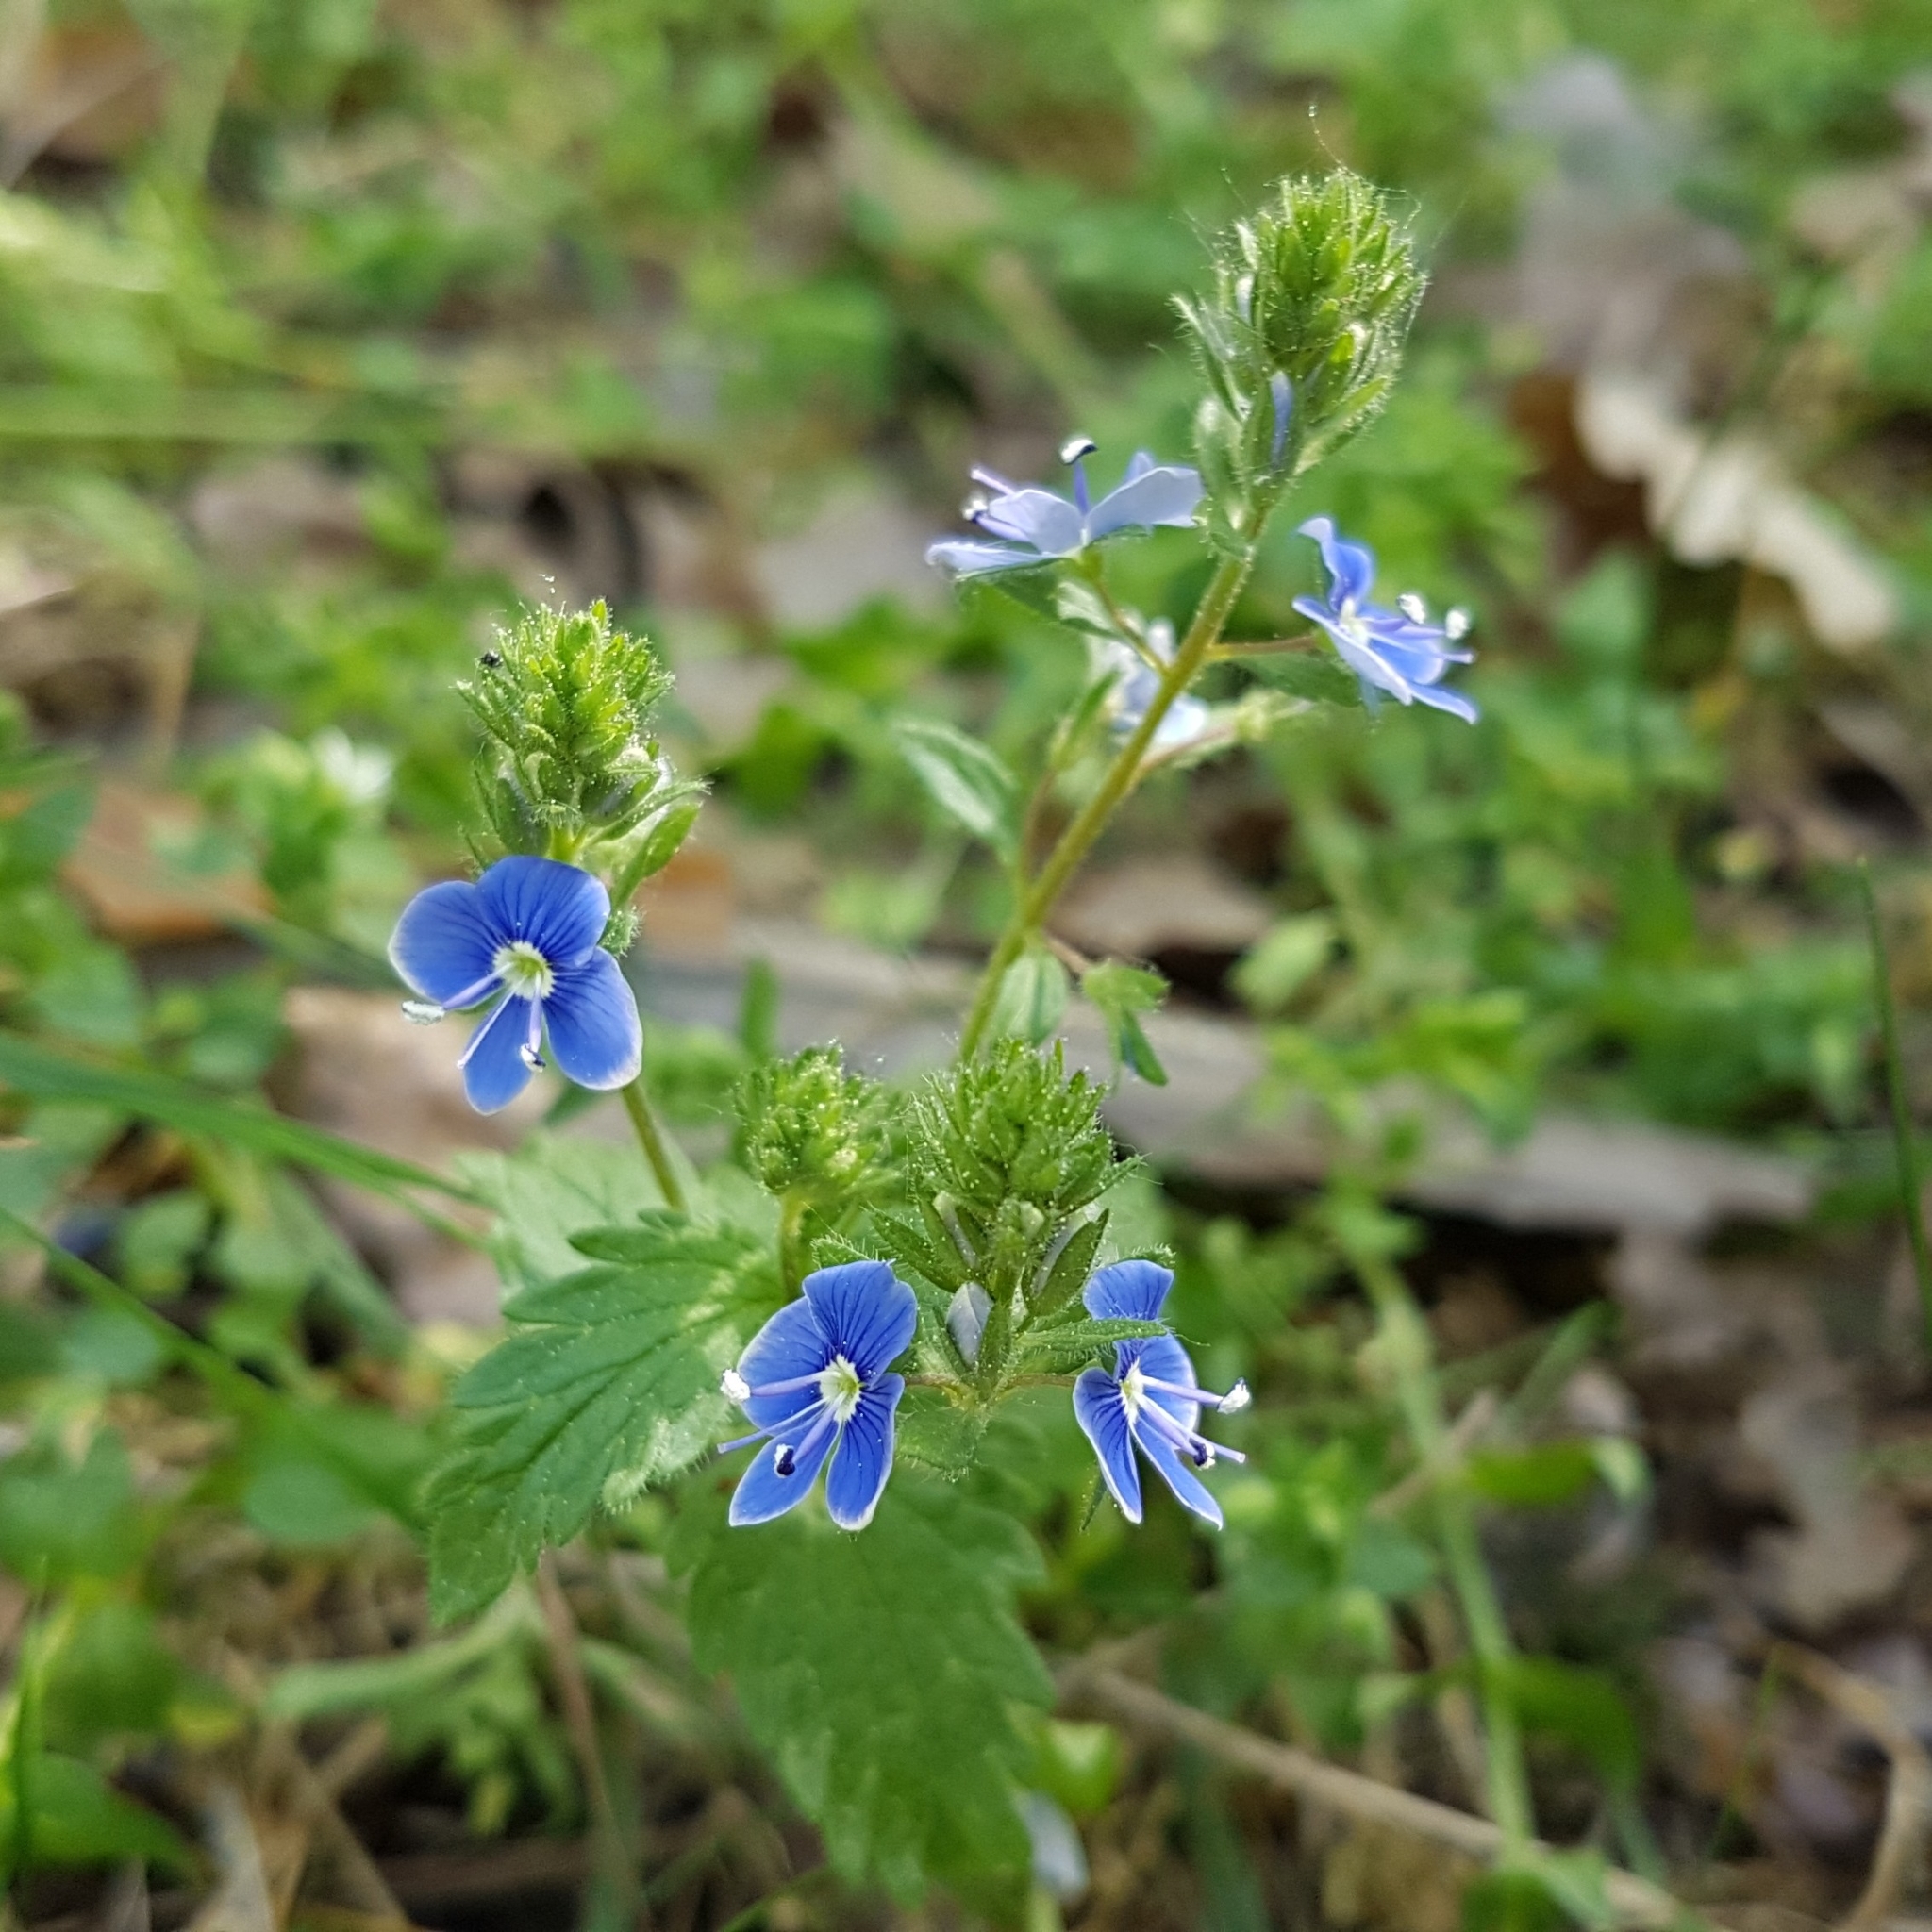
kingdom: Plantae
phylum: Tracheophyta
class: Magnoliopsida
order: Lamiales
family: Plantaginaceae
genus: Veronica
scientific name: Veronica chamaedrys
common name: Germander speedwell
